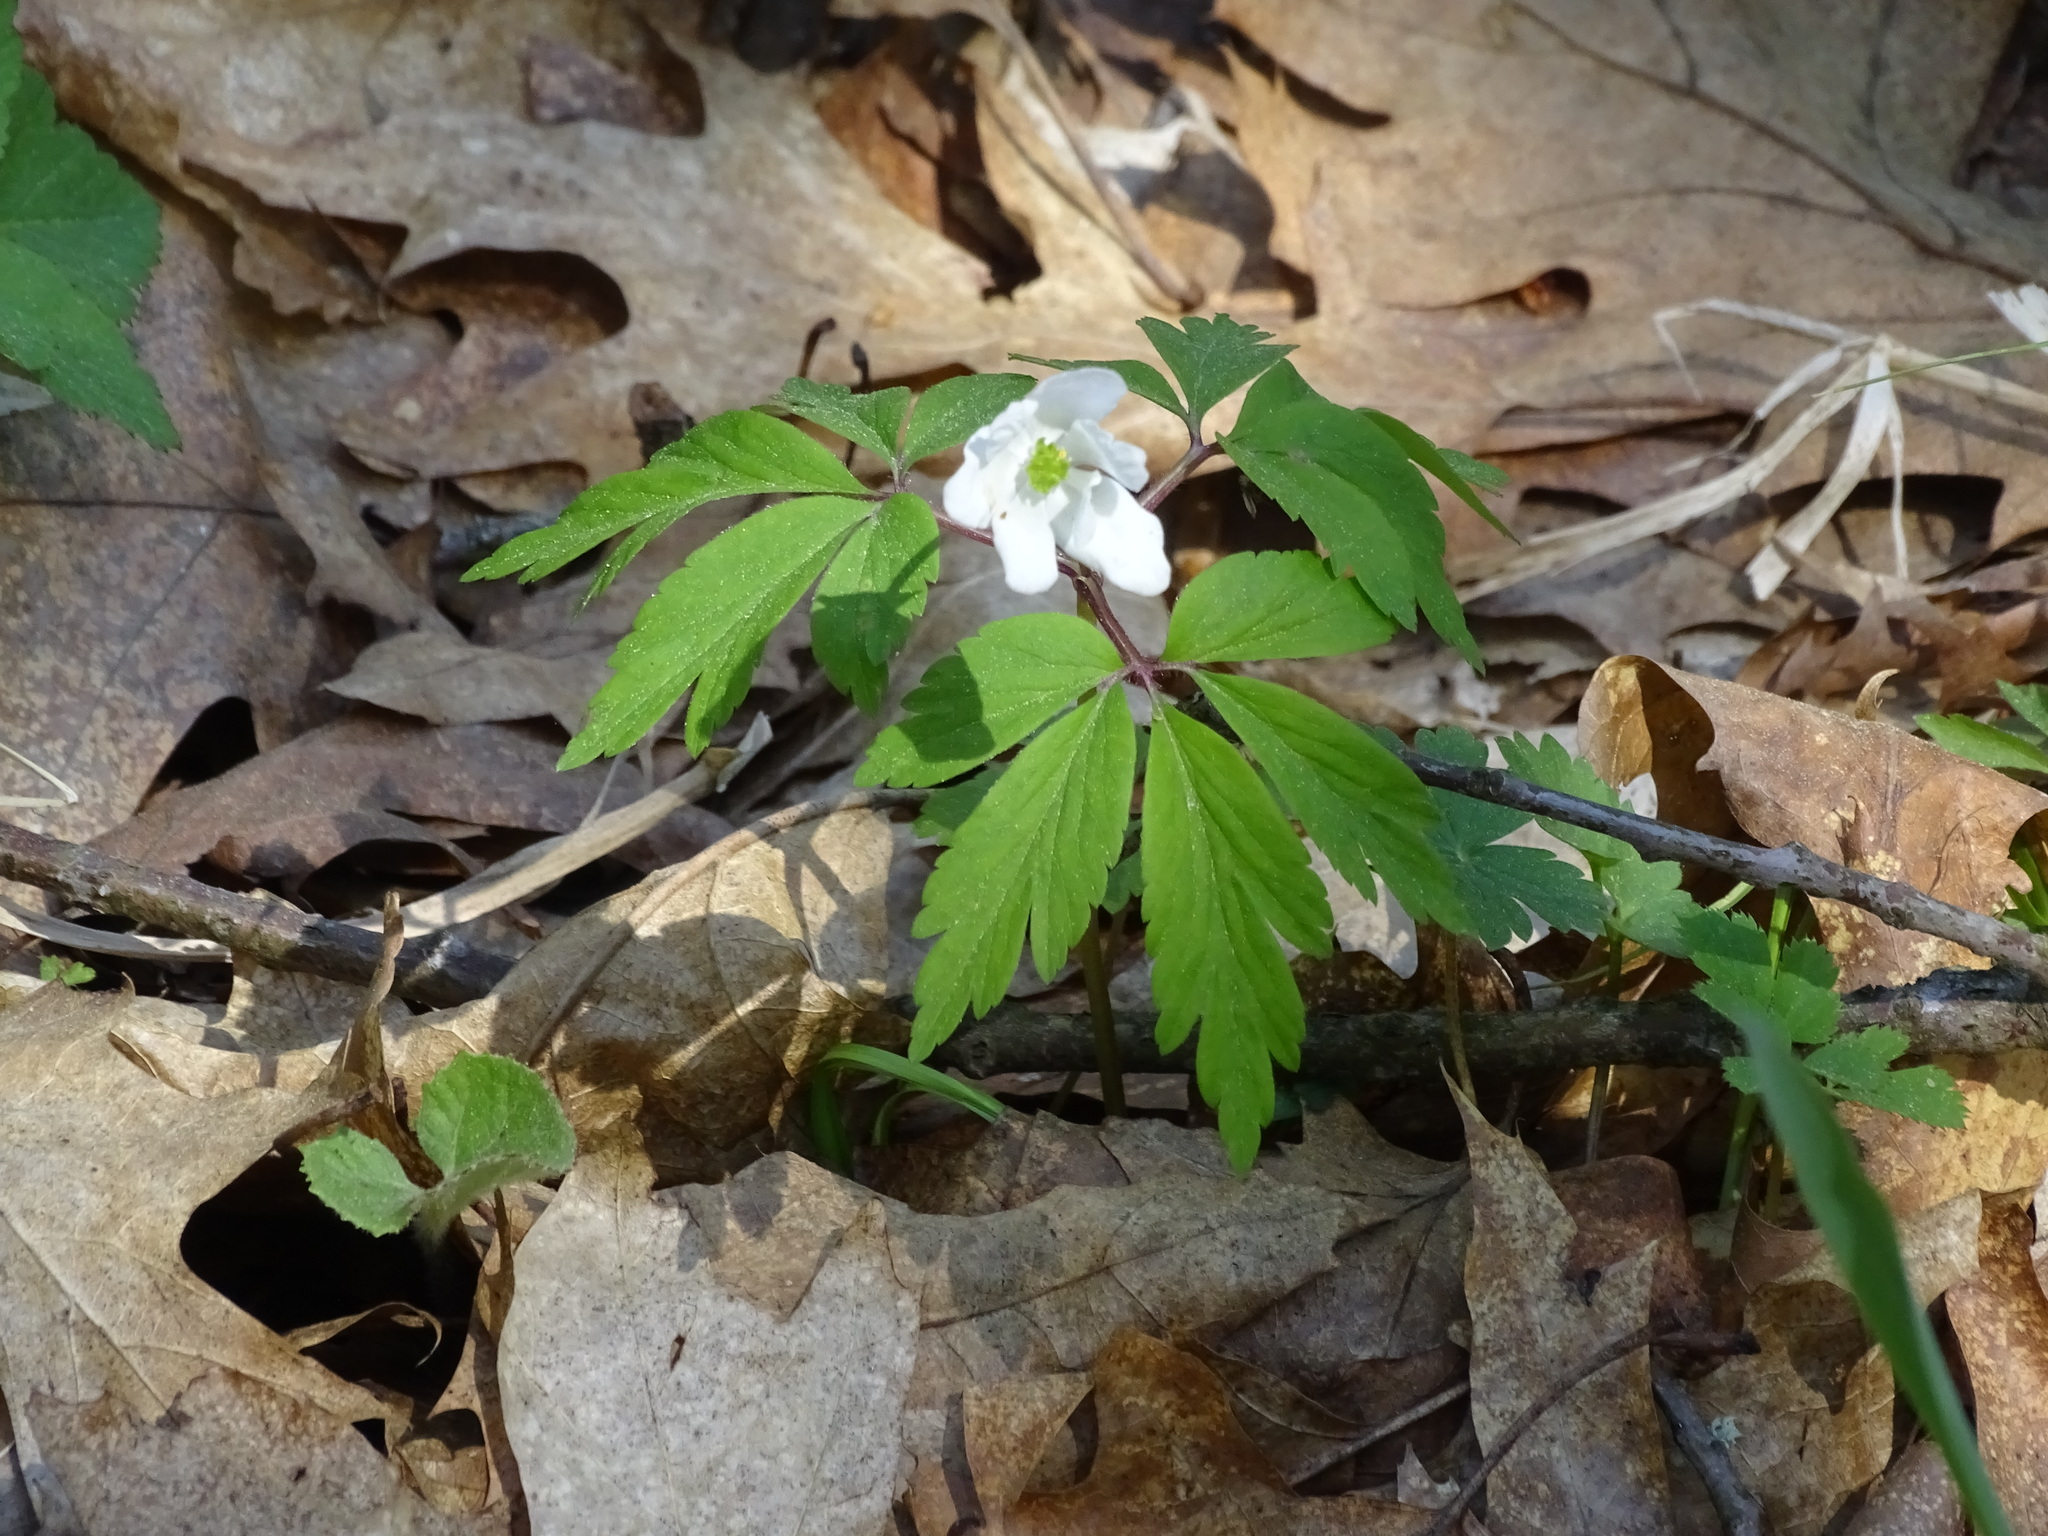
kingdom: Plantae
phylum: Tracheophyta
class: Magnoliopsida
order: Ranunculales
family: Ranunculaceae
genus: Anemone
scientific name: Anemone nemorosa
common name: Wood anemone
